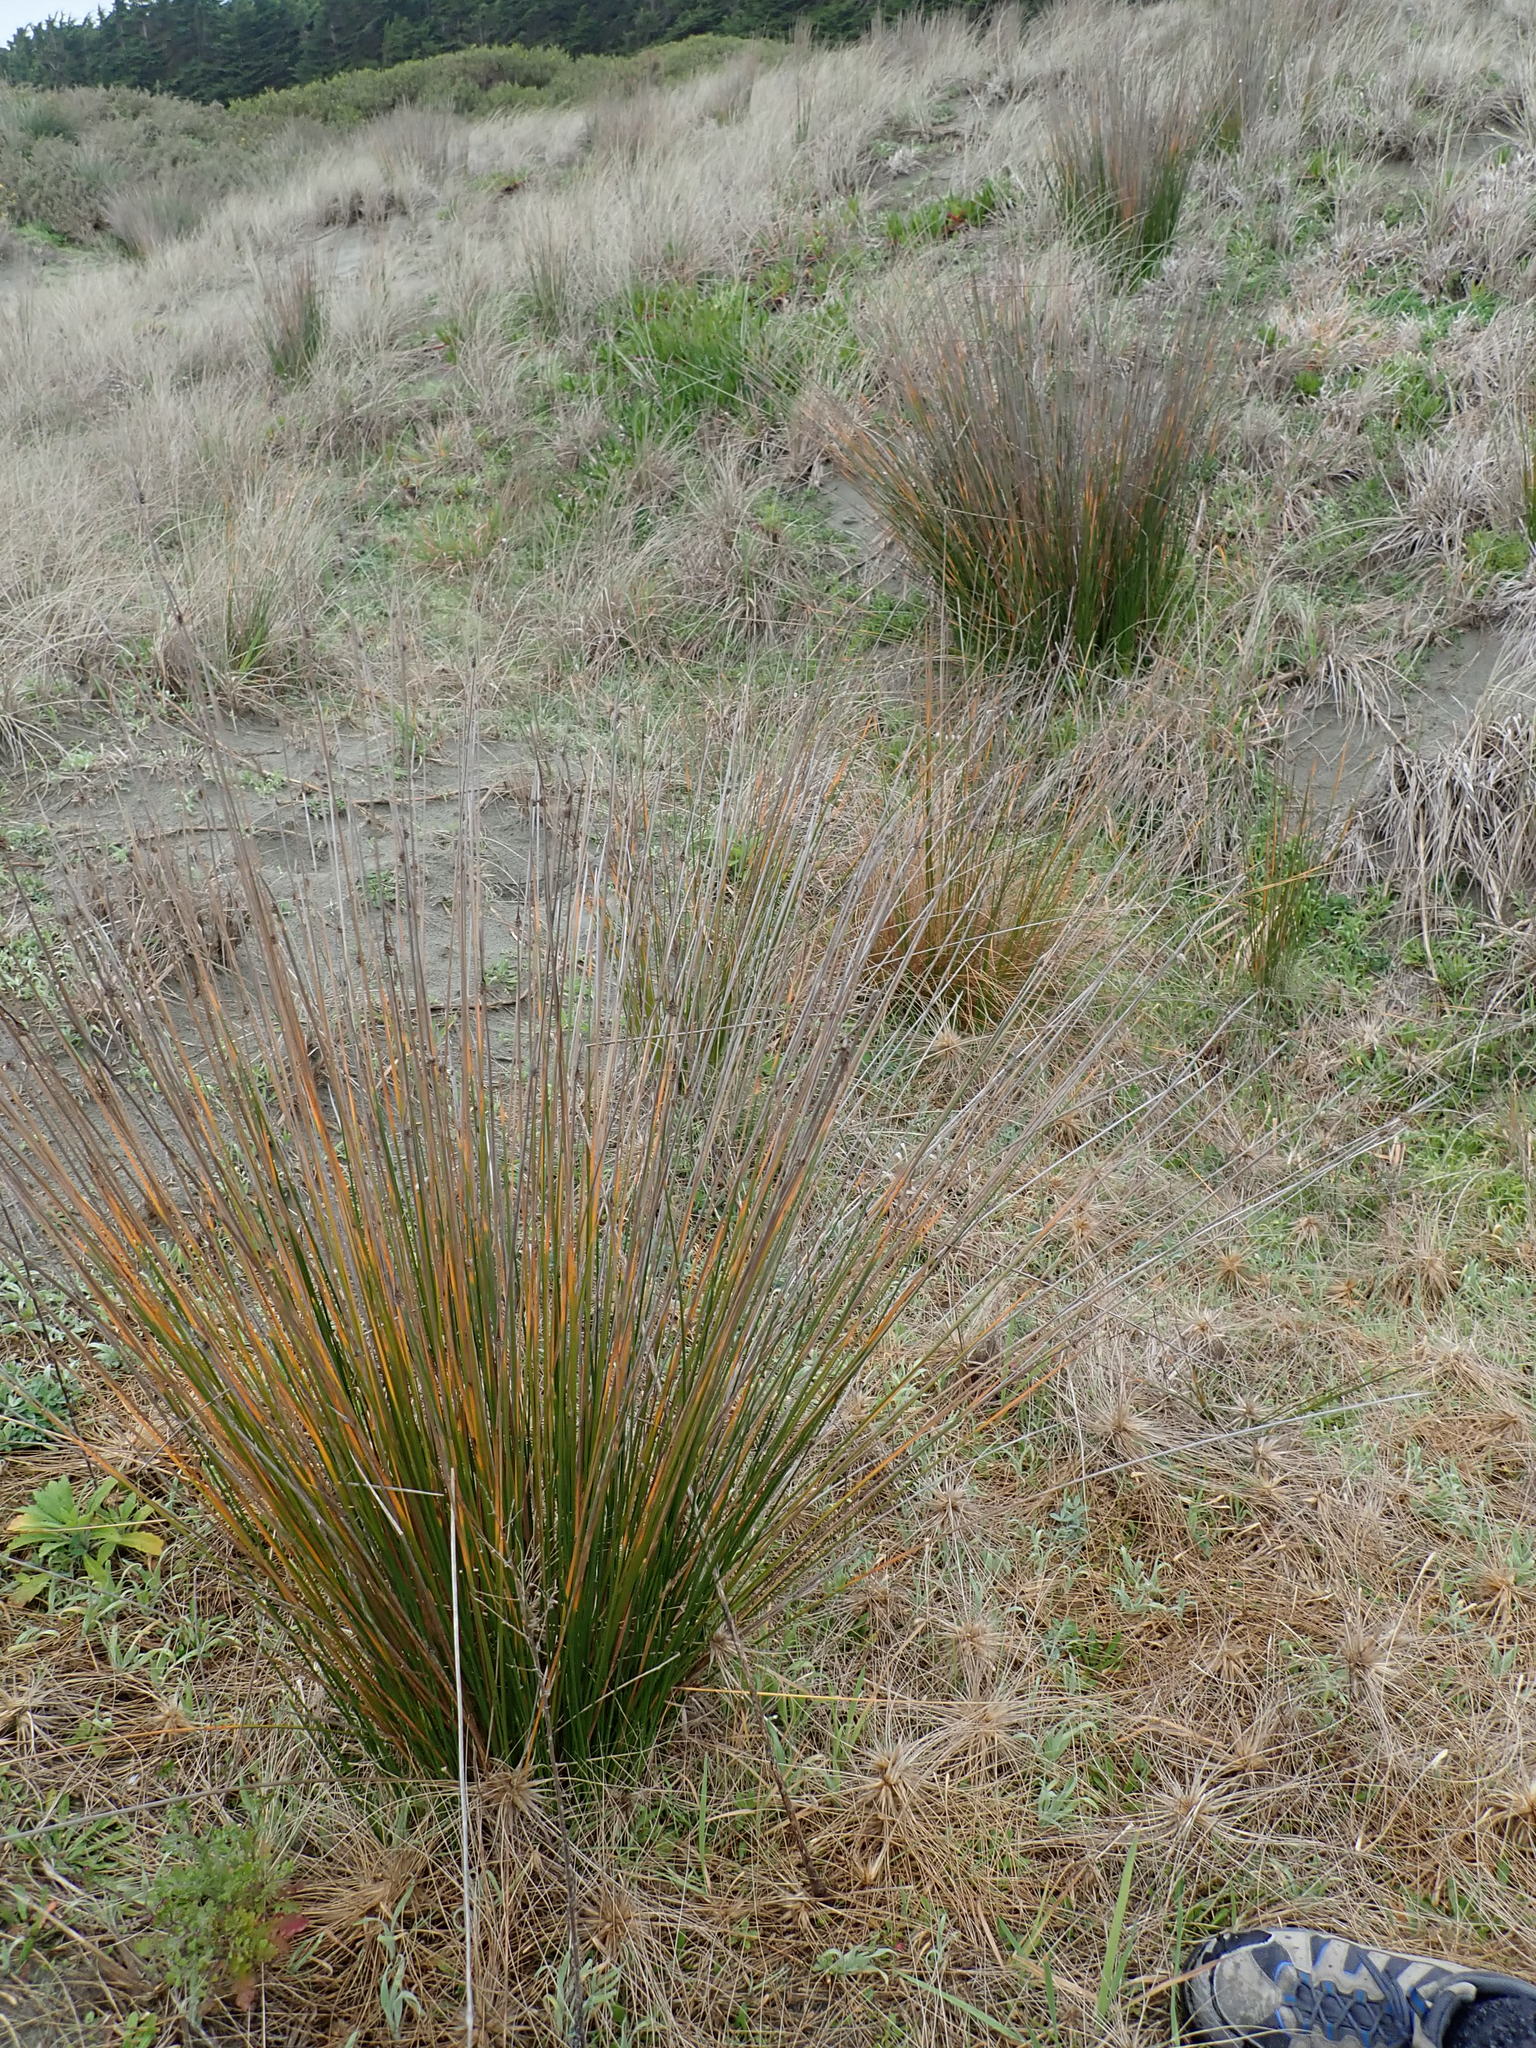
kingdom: Plantae
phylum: Tracheophyta
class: Liliopsida
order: Poales
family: Cyperaceae
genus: Ficinia
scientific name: Ficinia nodosa
